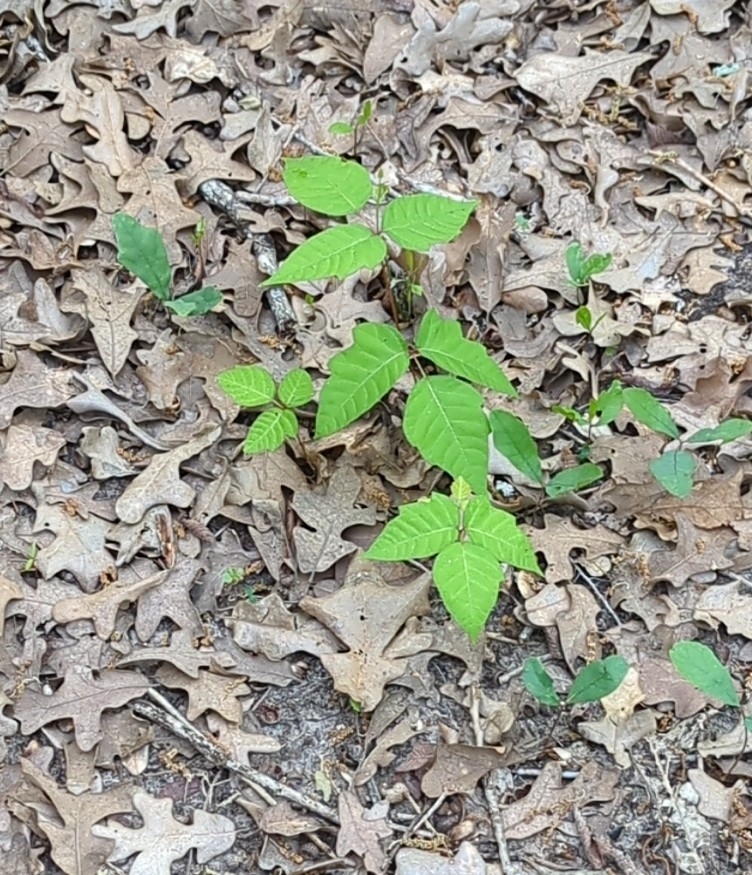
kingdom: Plantae
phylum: Tracheophyta
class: Magnoliopsida
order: Sapindales
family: Anacardiaceae
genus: Toxicodendron
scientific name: Toxicodendron radicans
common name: Poison ivy
